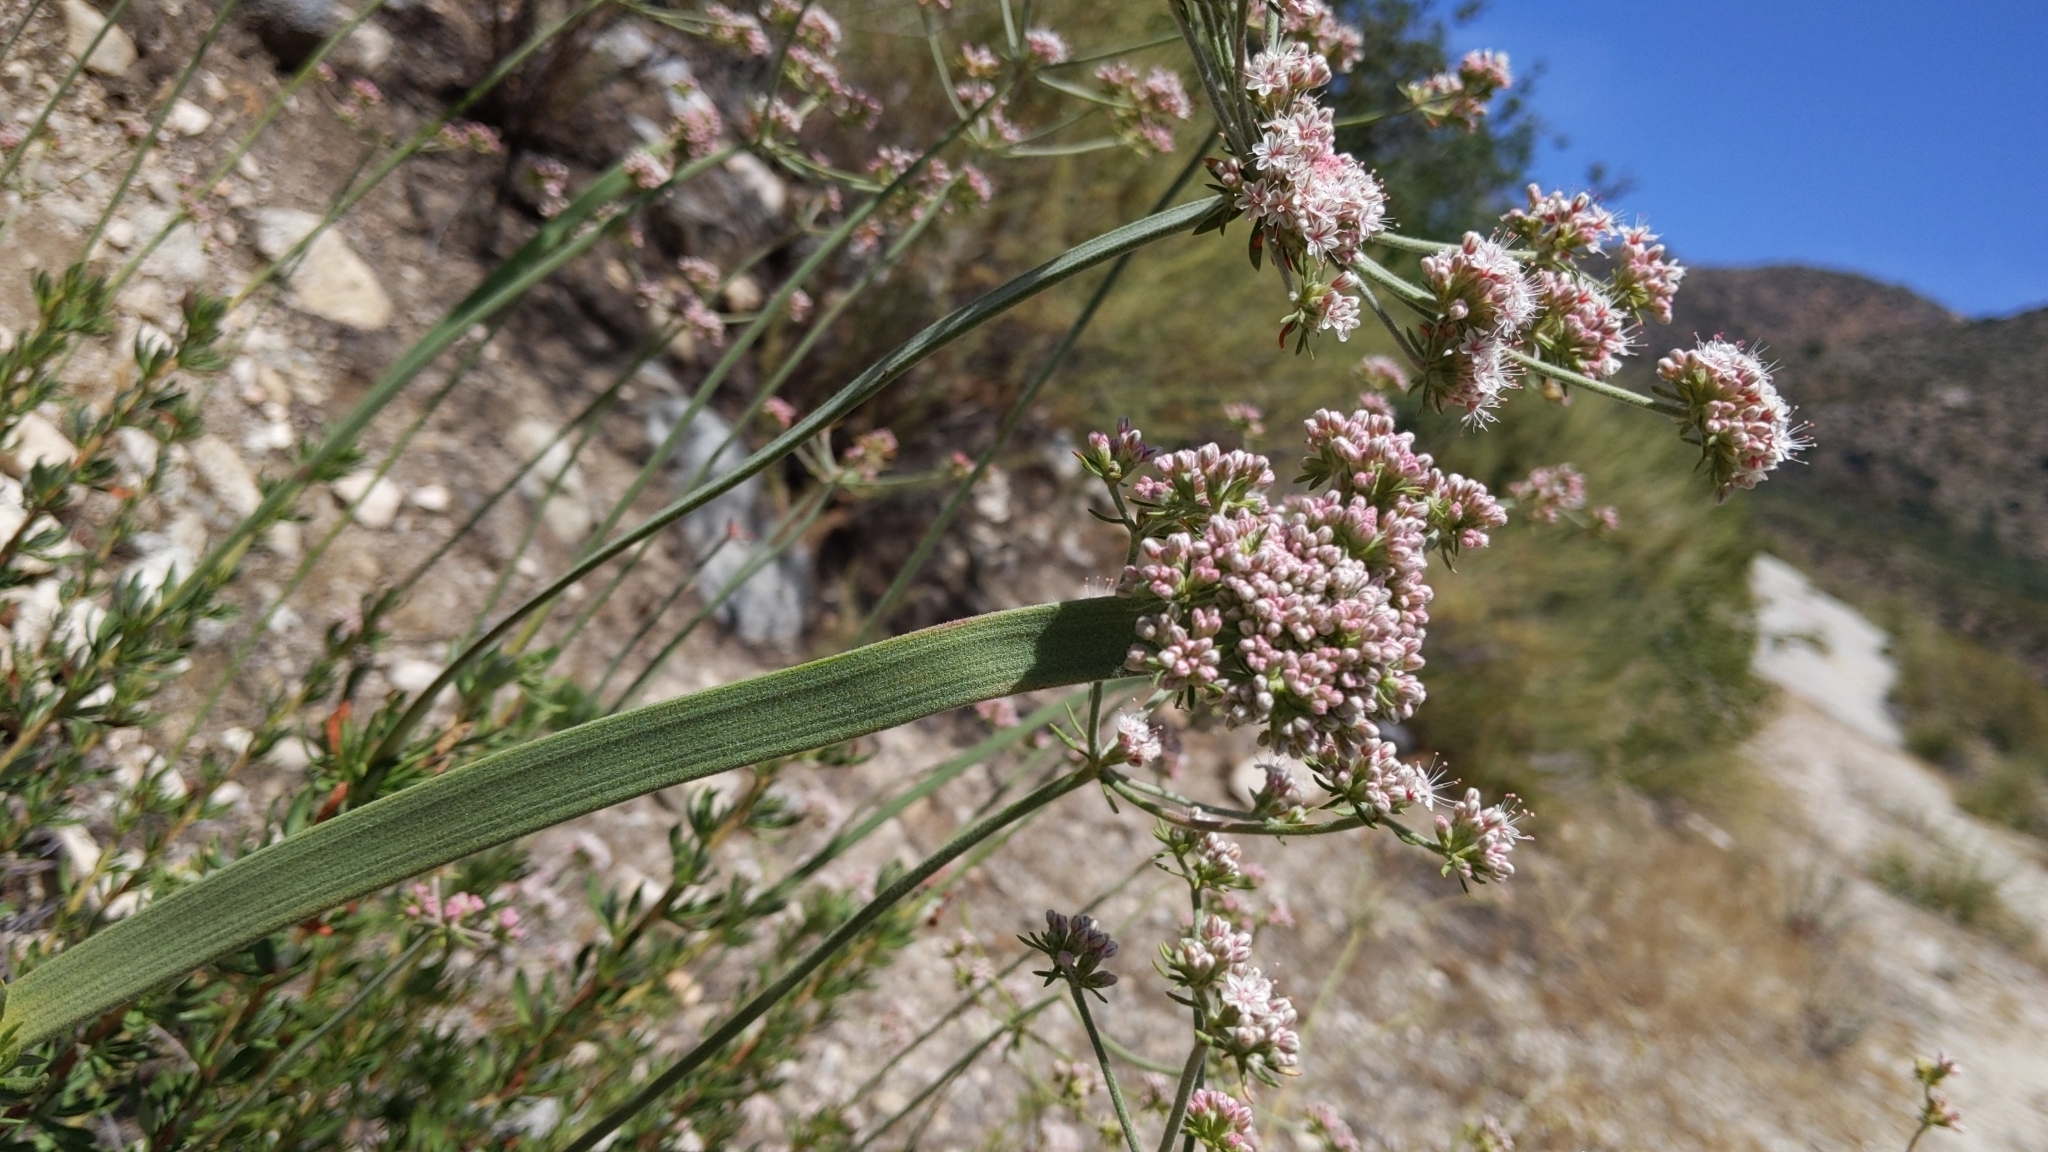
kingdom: Plantae
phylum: Tracheophyta
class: Magnoliopsida
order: Caryophyllales
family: Polygonaceae
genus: Eriogonum
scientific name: Eriogonum fasciculatum
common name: California wild buckwheat
